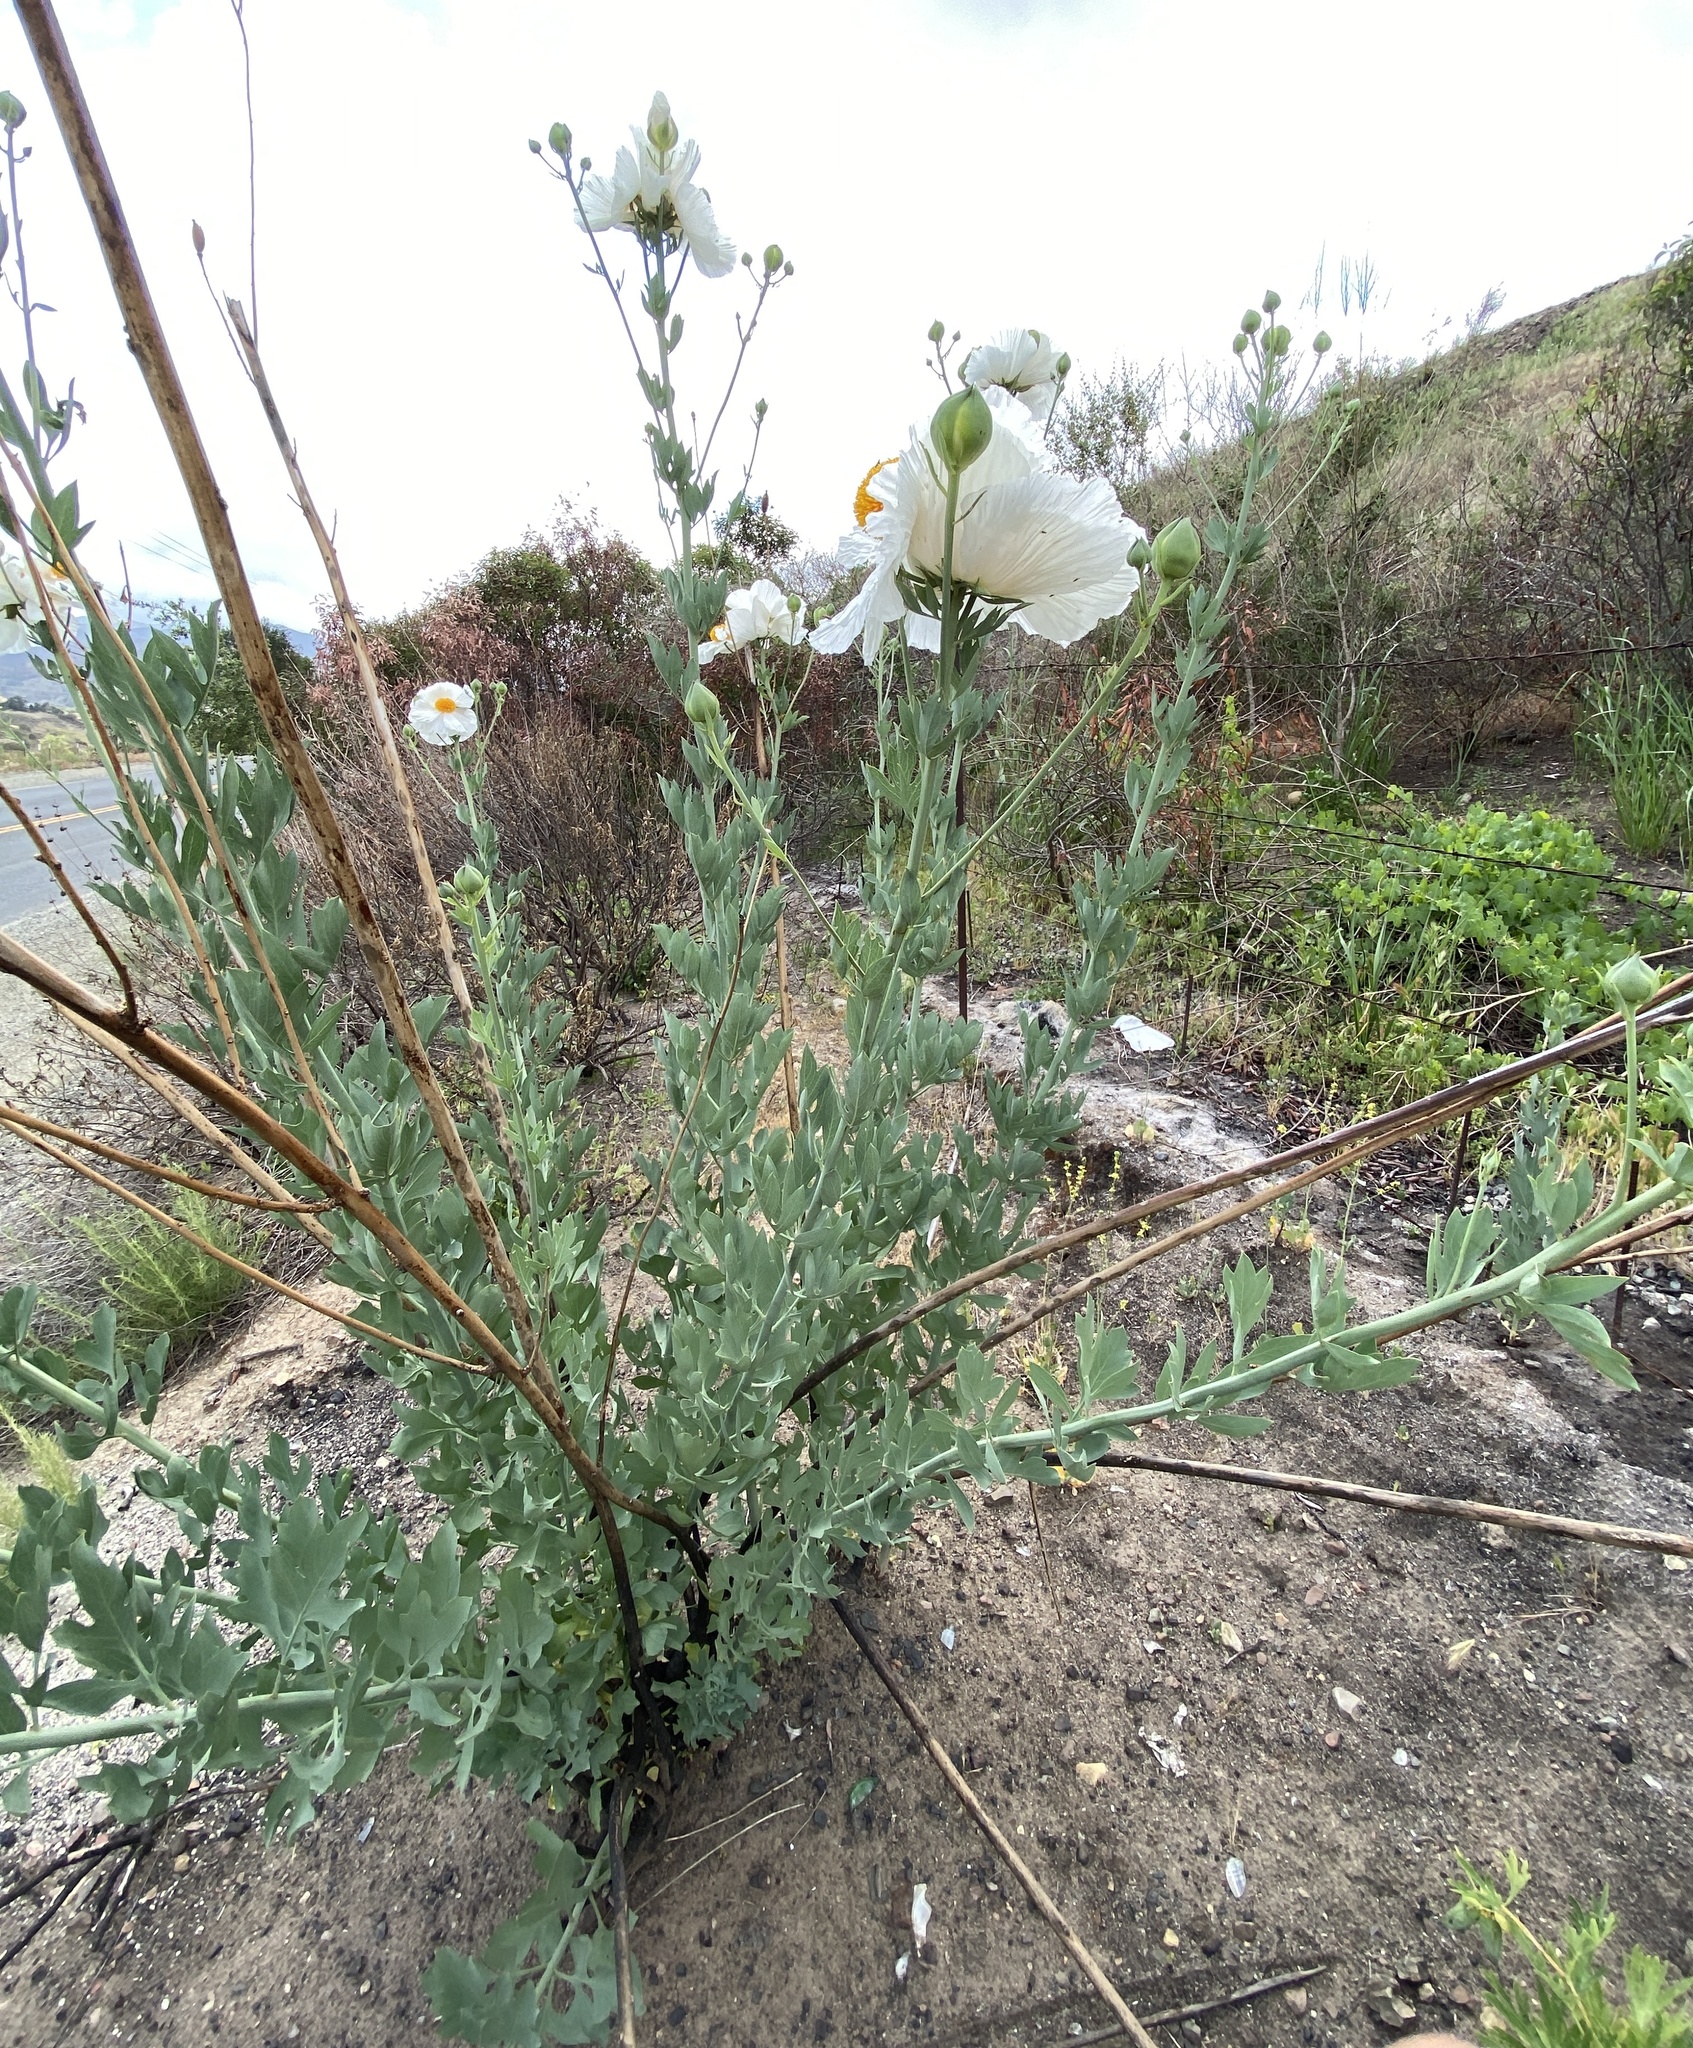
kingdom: Plantae
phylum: Tracheophyta
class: Magnoliopsida
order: Ranunculales
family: Papaveraceae
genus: Romneya
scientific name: Romneya coulteri
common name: California tree-poppy
